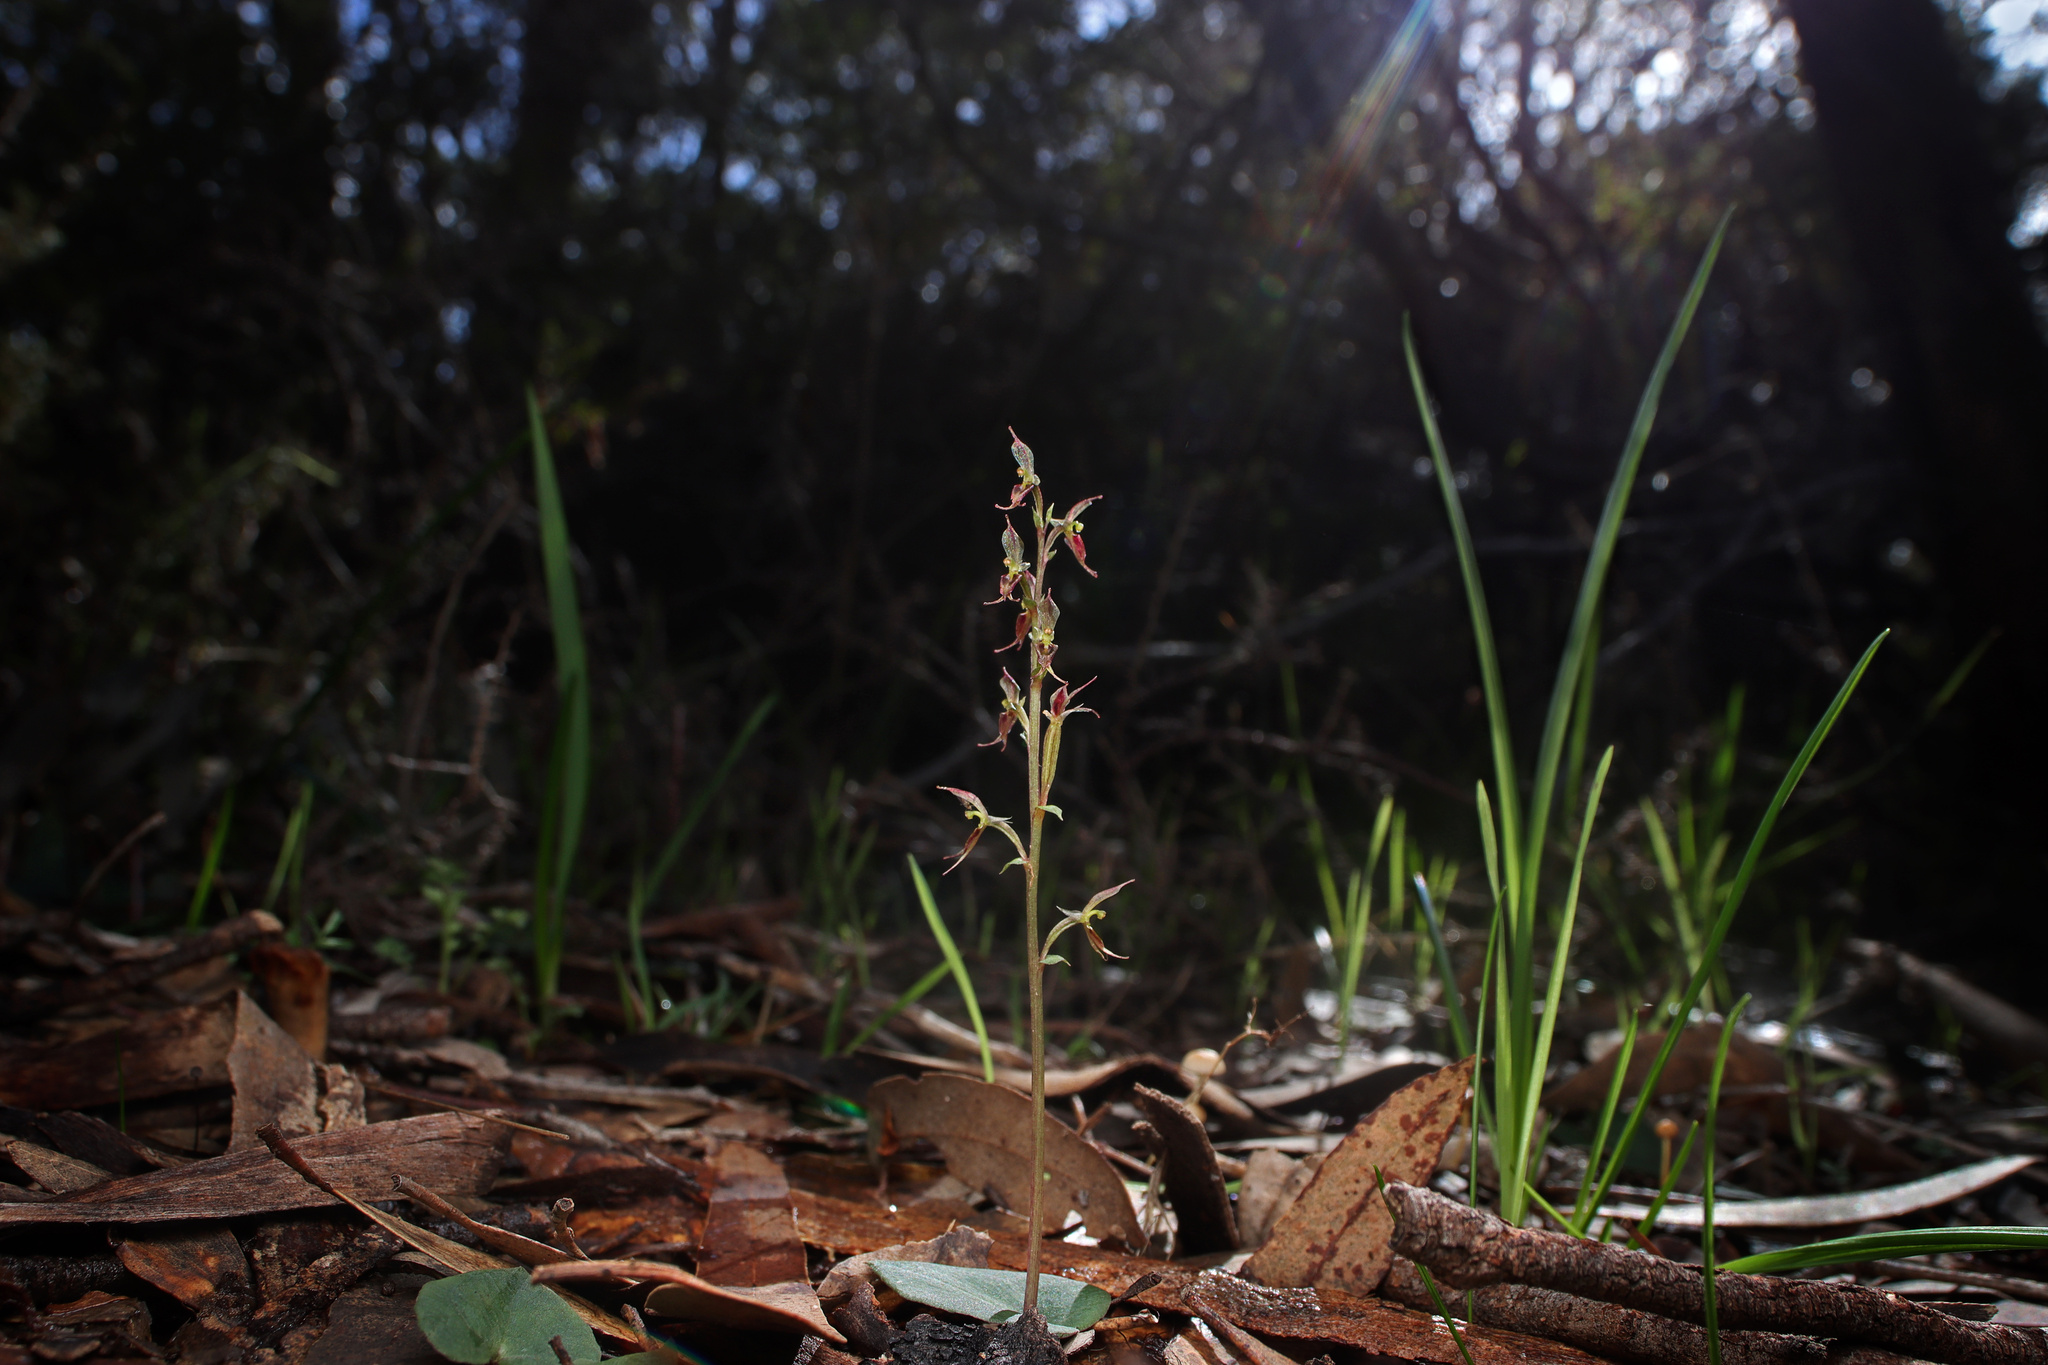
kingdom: Plantae
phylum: Tracheophyta
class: Liliopsida
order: Asparagales
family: Orchidaceae
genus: Acianthus
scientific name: Acianthus pusillus
